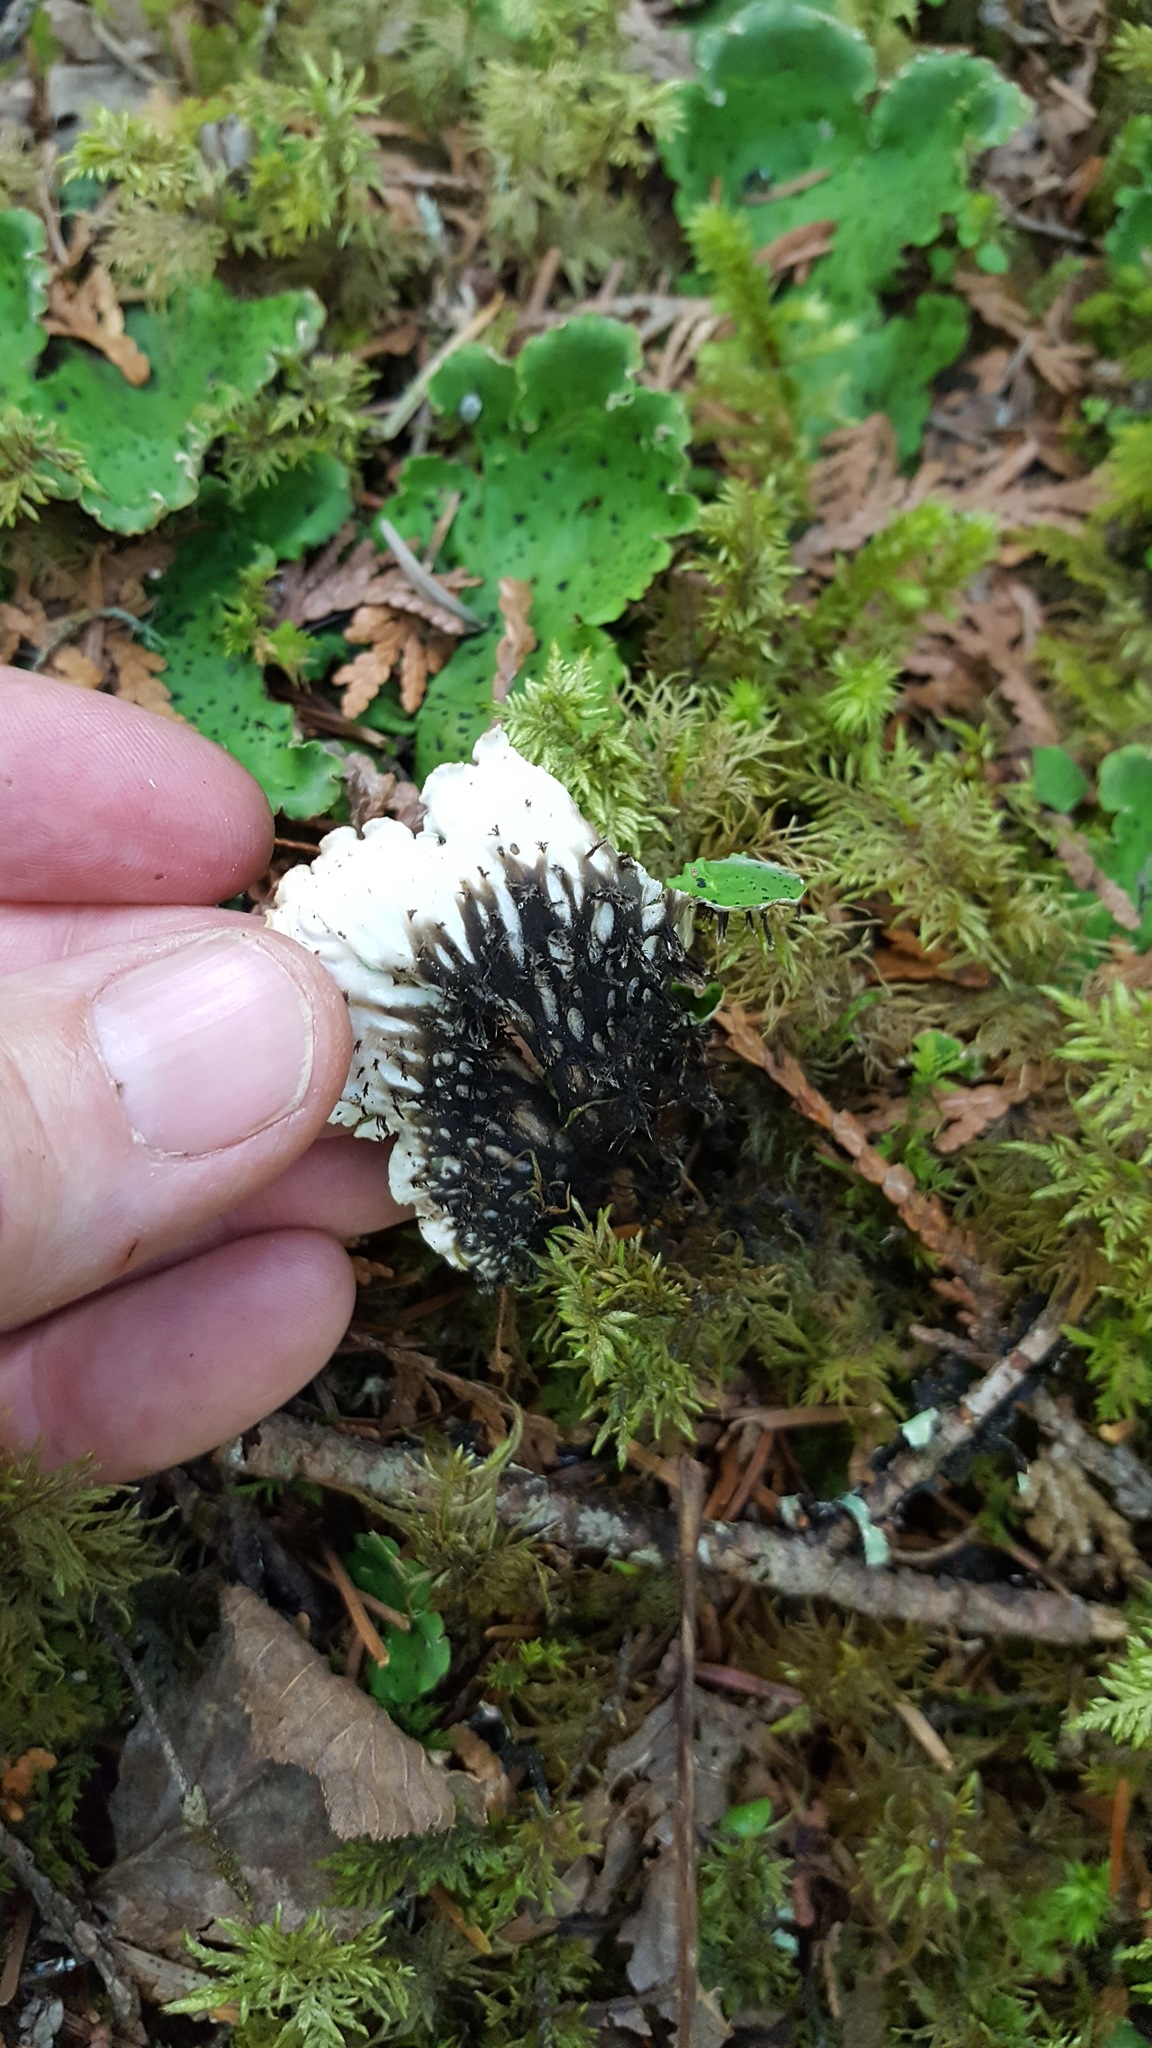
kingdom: Fungi
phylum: Ascomycota
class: Lecanoromycetes
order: Peltigerales
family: Peltigeraceae
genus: Peltigera
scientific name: Peltigera leucophlebia
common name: Ruffled freckle pelt lichen
